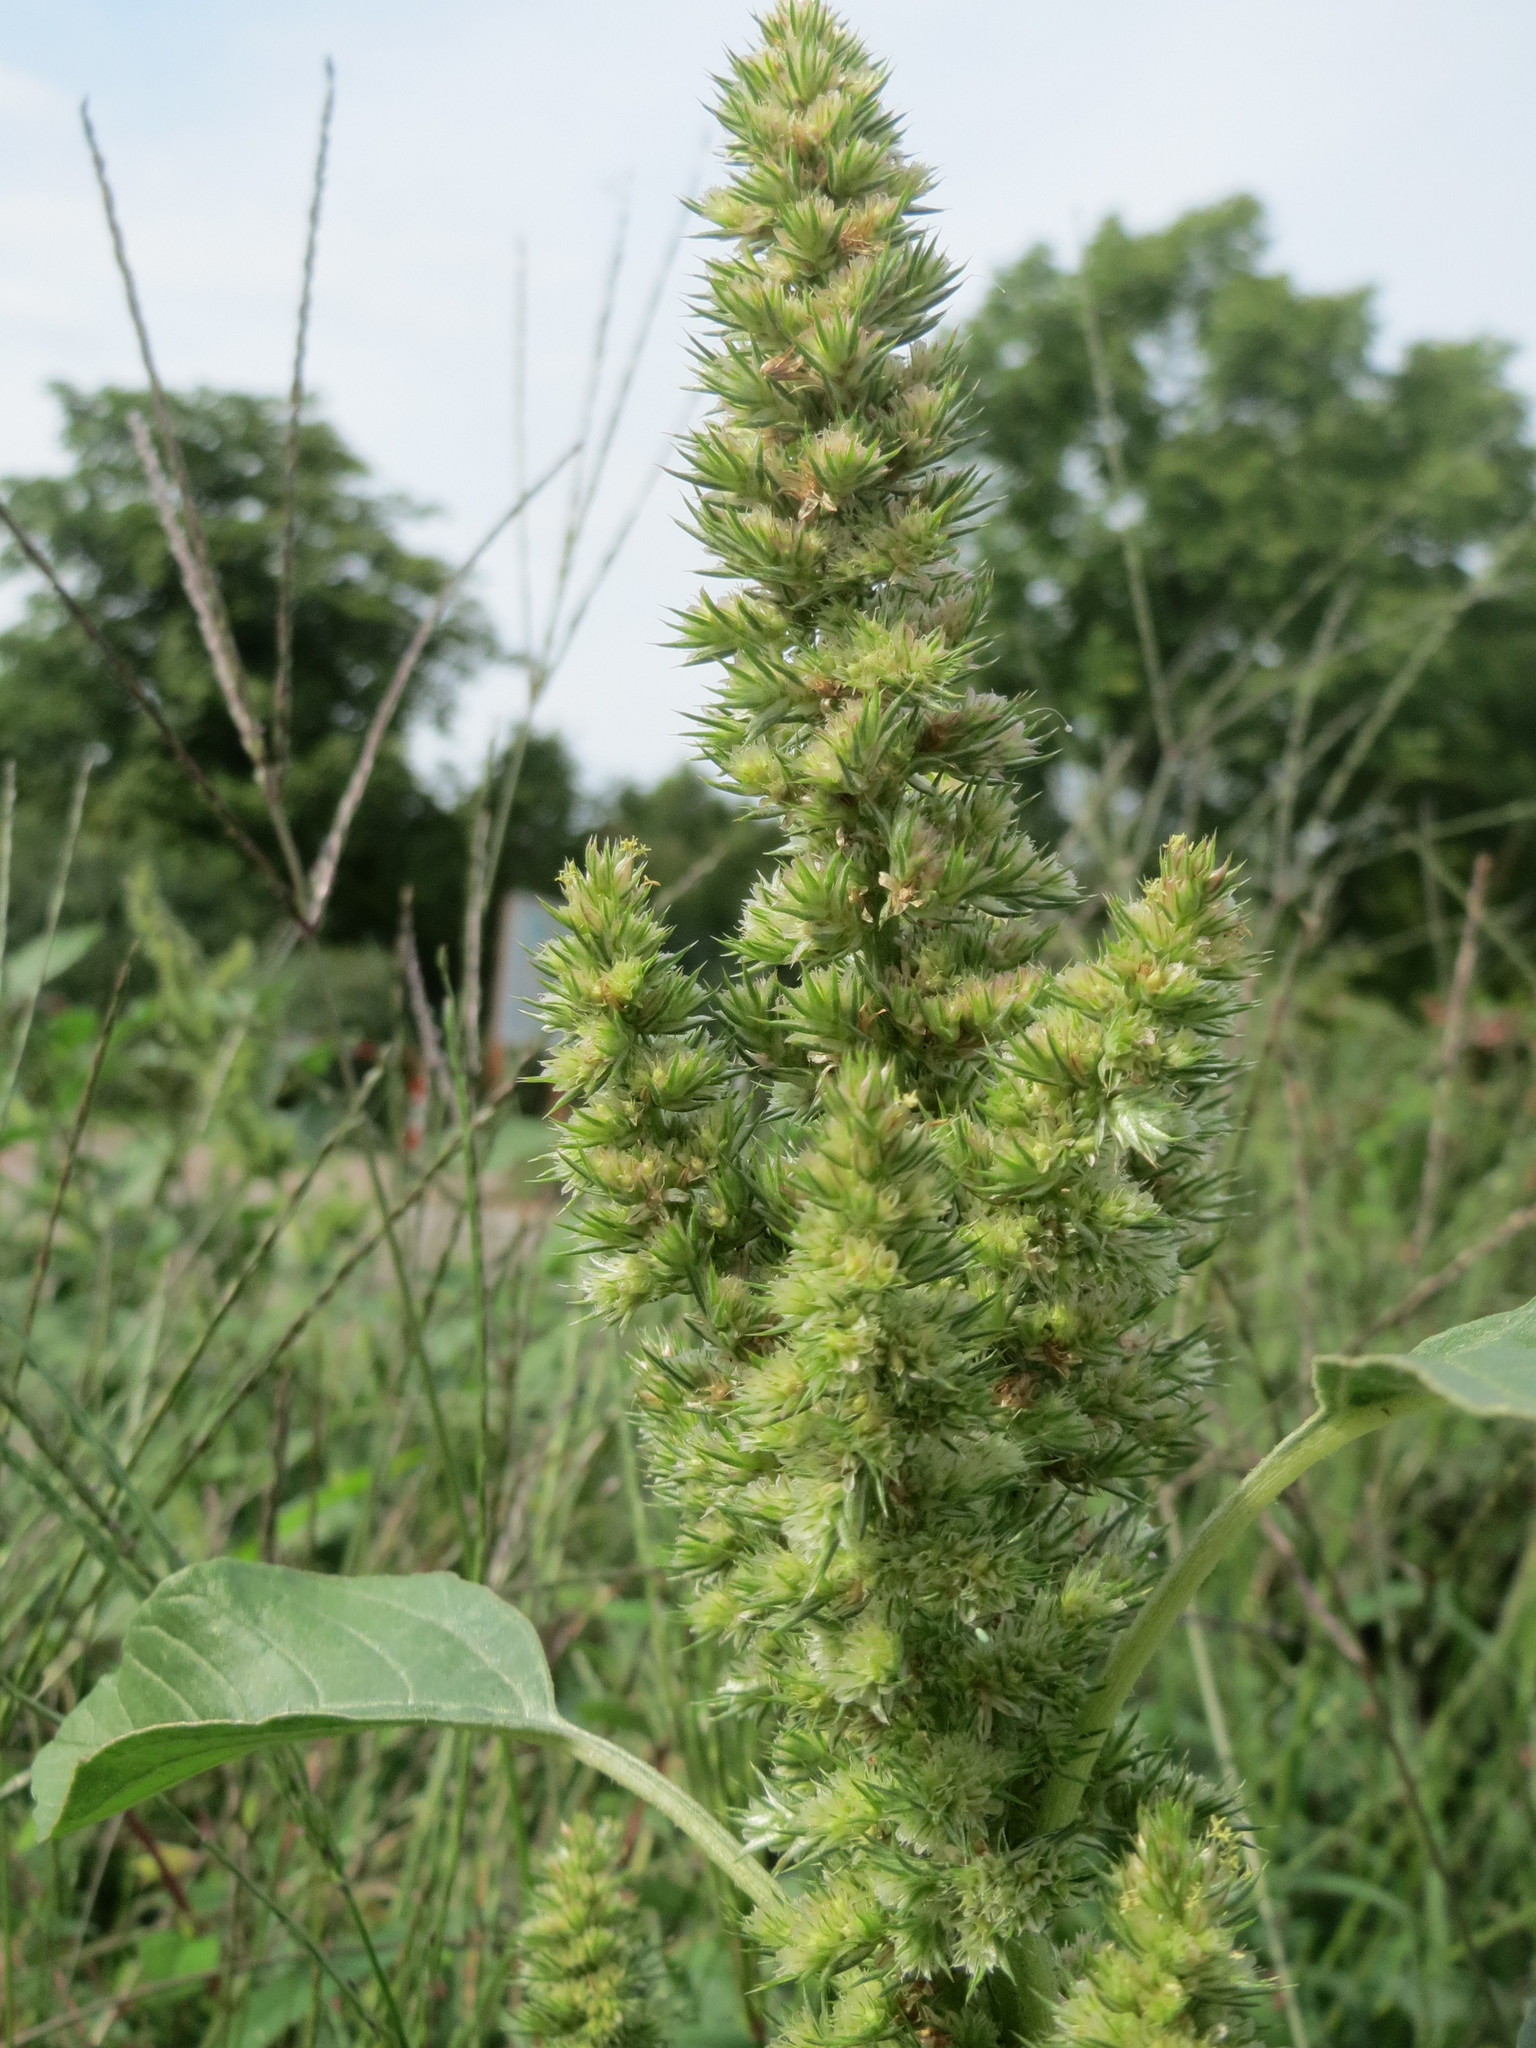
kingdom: Plantae
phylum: Tracheophyta
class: Magnoliopsida
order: Caryophyllales
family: Amaranthaceae
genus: Amaranthus
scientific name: Amaranthus retroflexus
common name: Redroot amaranth
